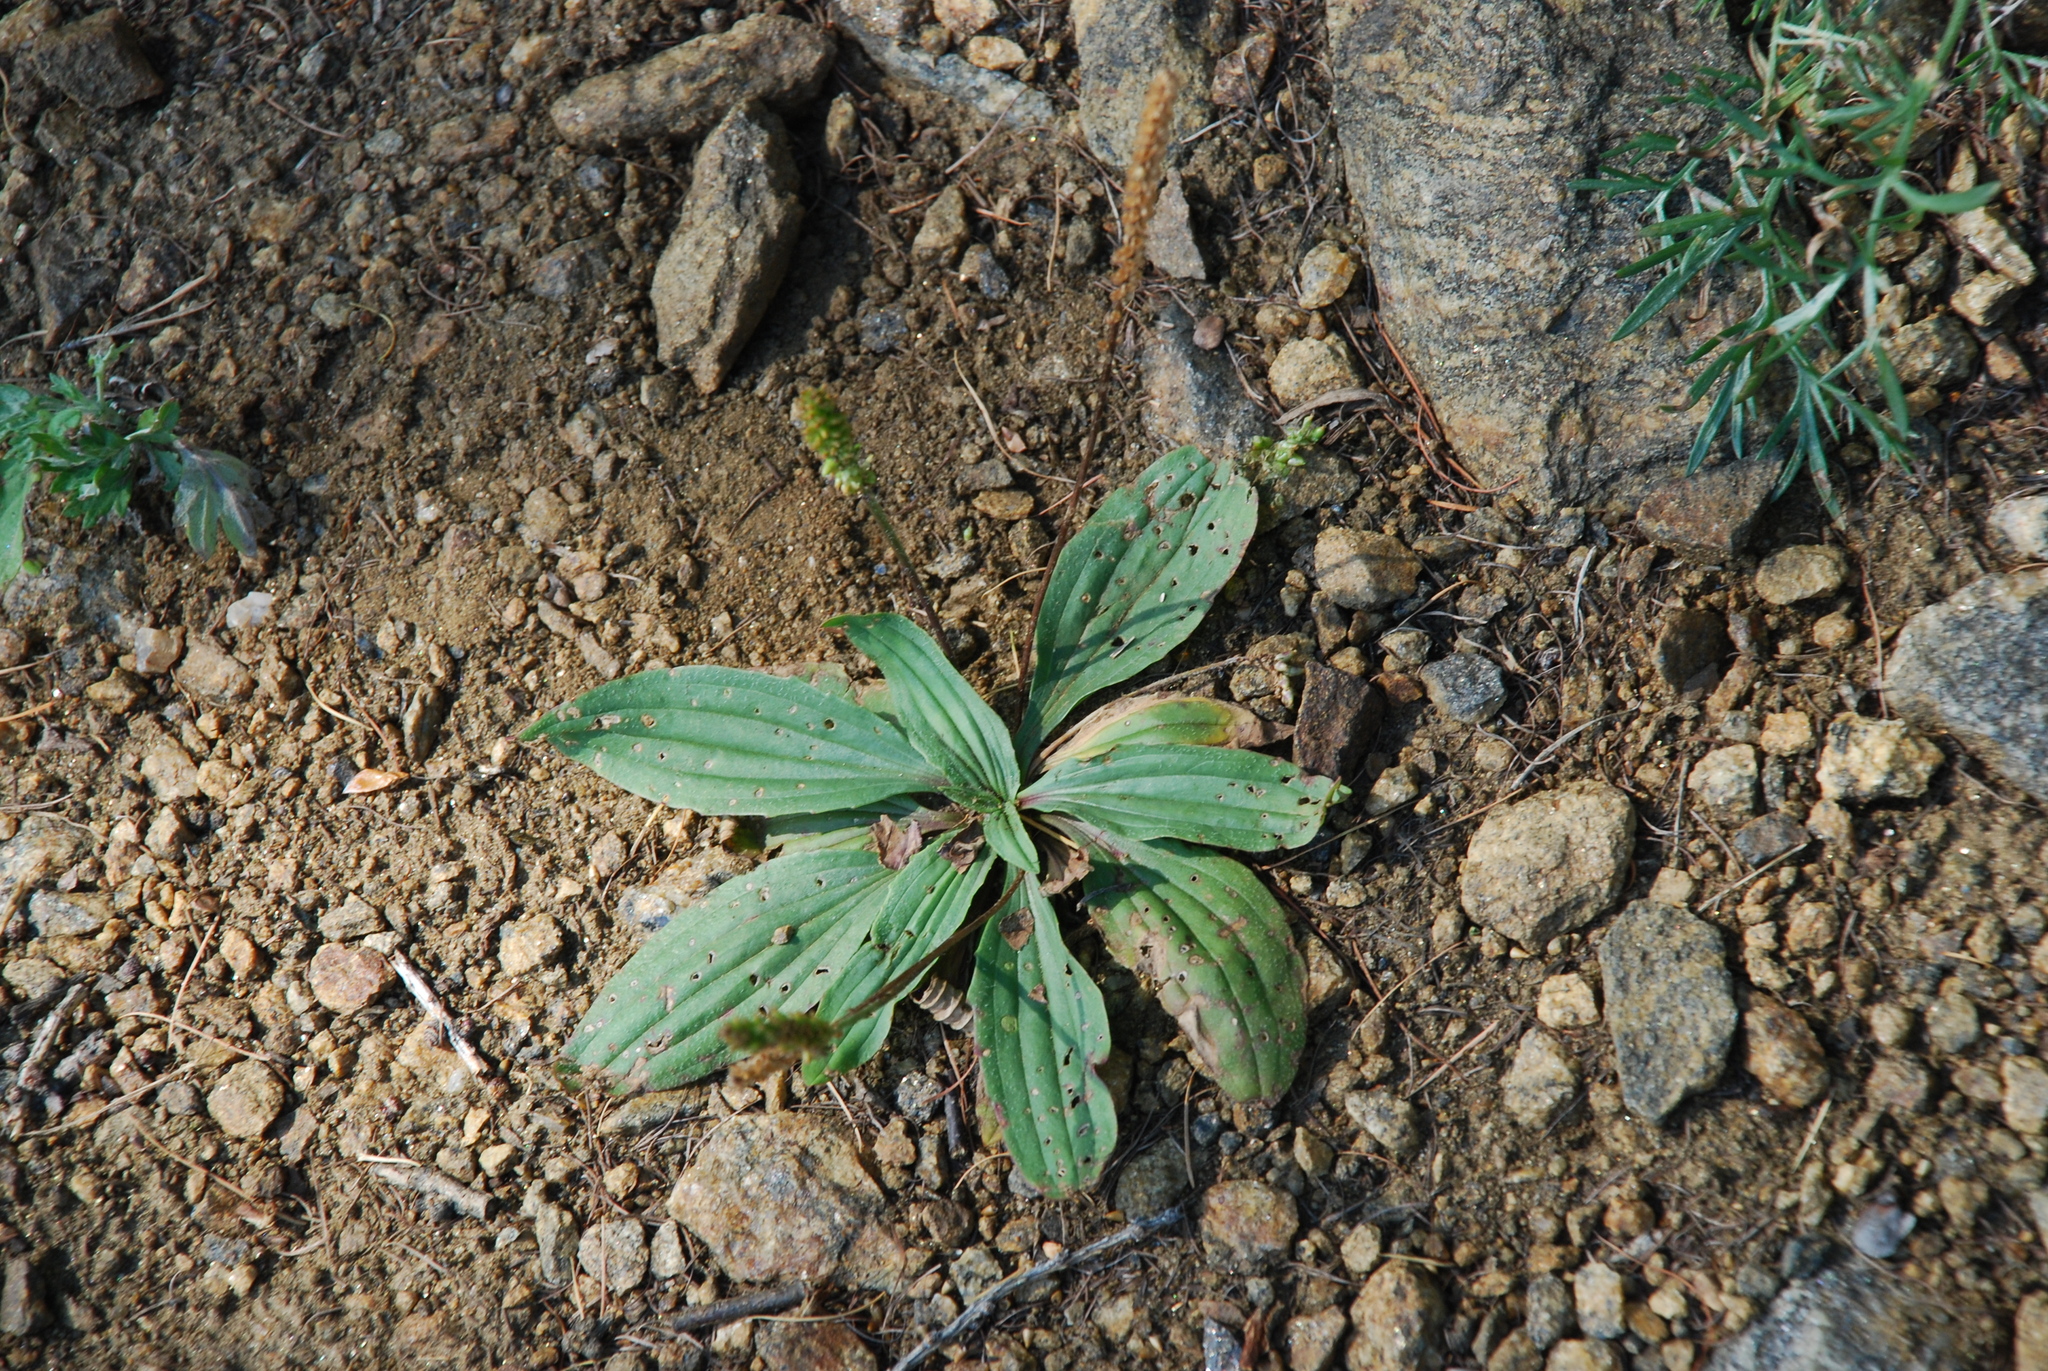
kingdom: Plantae
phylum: Tracheophyta
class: Magnoliopsida
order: Lamiales
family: Plantaginaceae
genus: Plantago
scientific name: Plantago depressa
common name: Depressed plantain
